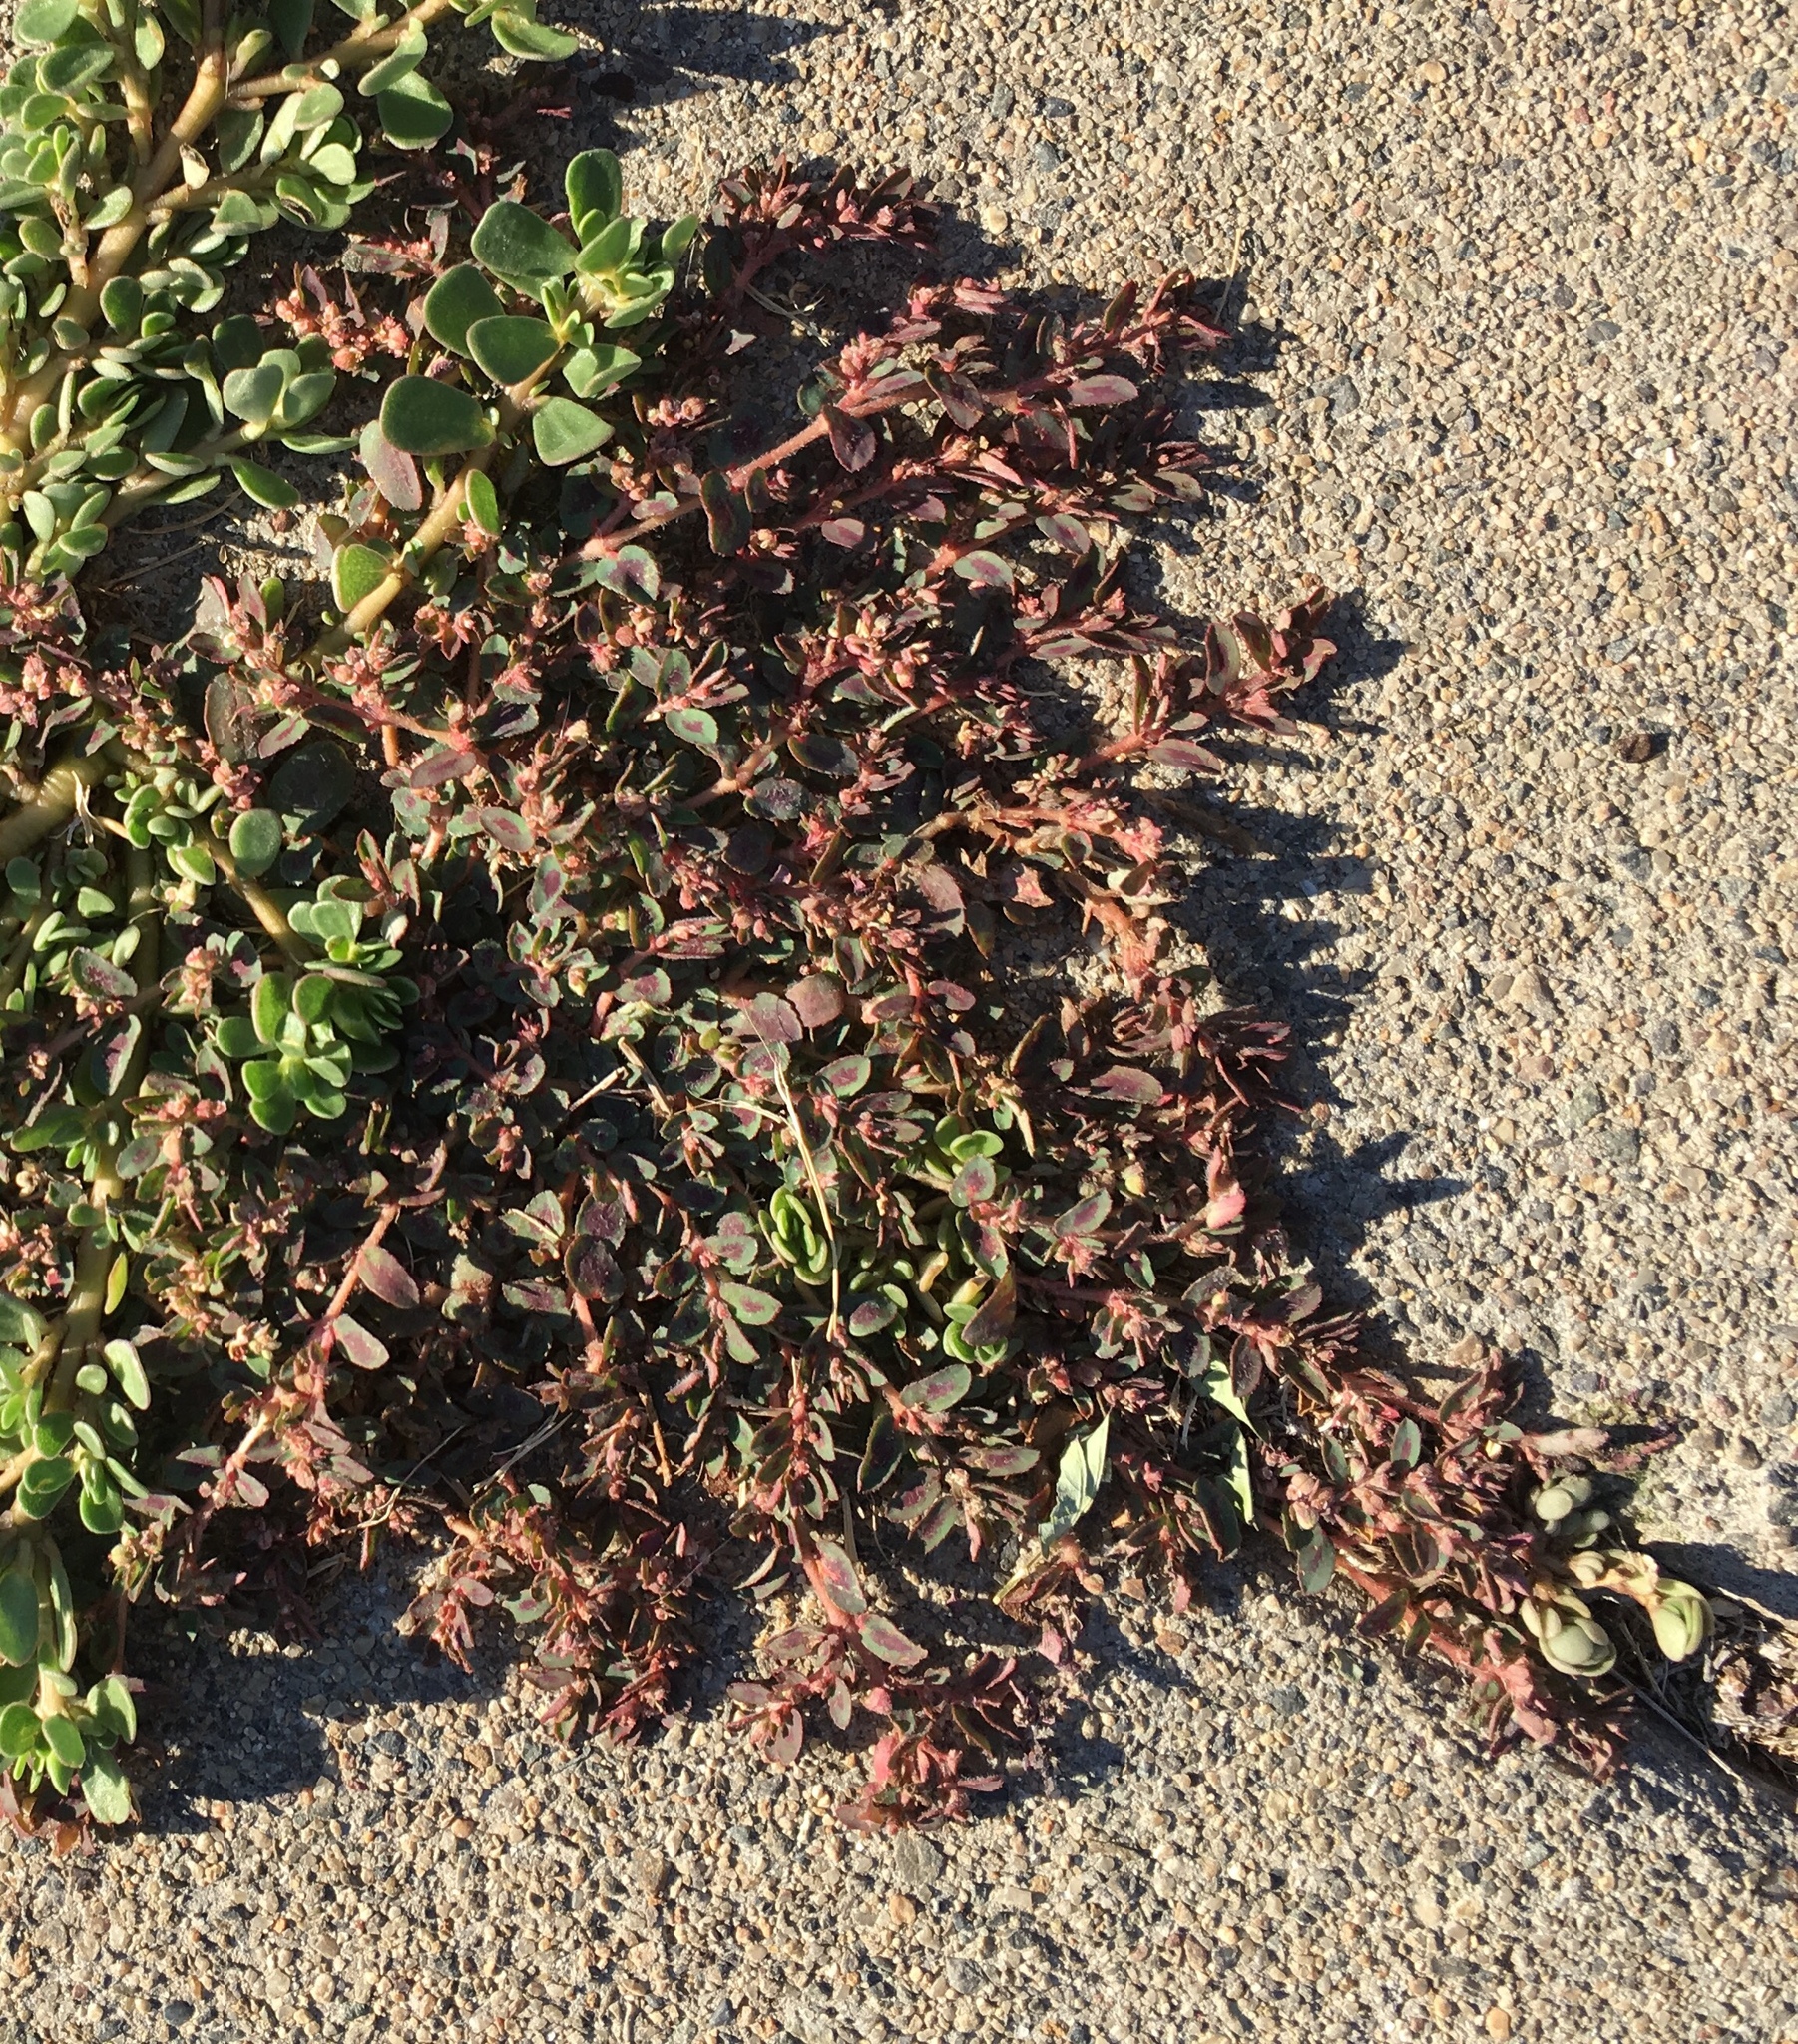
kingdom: Plantae
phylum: Tracheophyta
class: Magnoliopsida
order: Malpighiales
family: Euphorbiaceae
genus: Euphorbia
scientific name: Euphorbia maculata
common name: Spotted spurge
